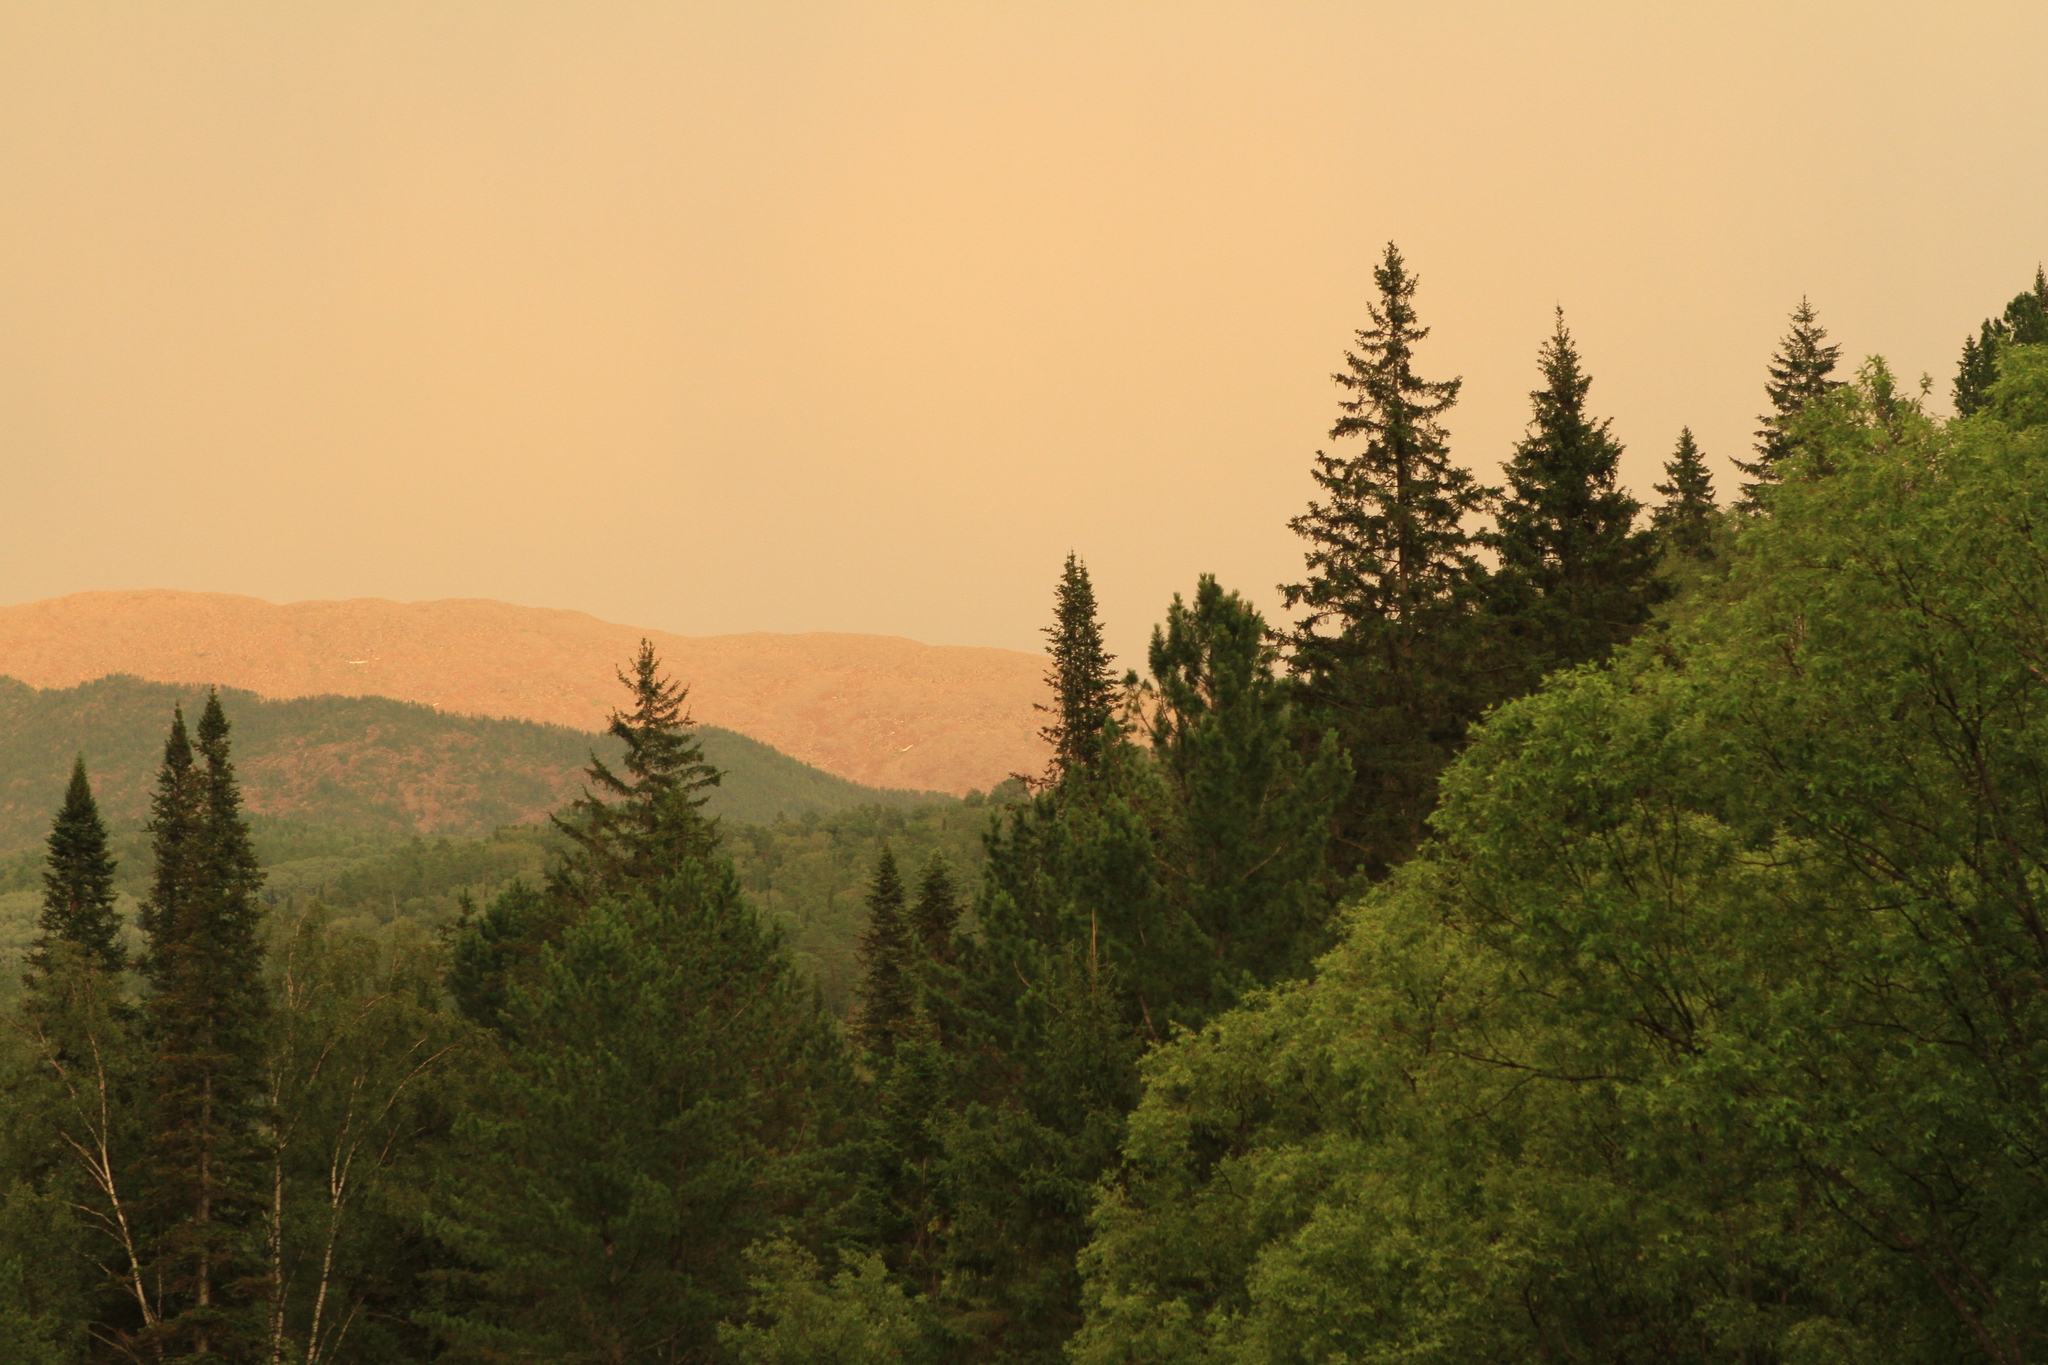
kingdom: Plantae
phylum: Tracheophyta
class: Pinopsida
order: Pinales
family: Pinaceae
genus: Picea
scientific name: Picea obovata
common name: Siberian spruce
